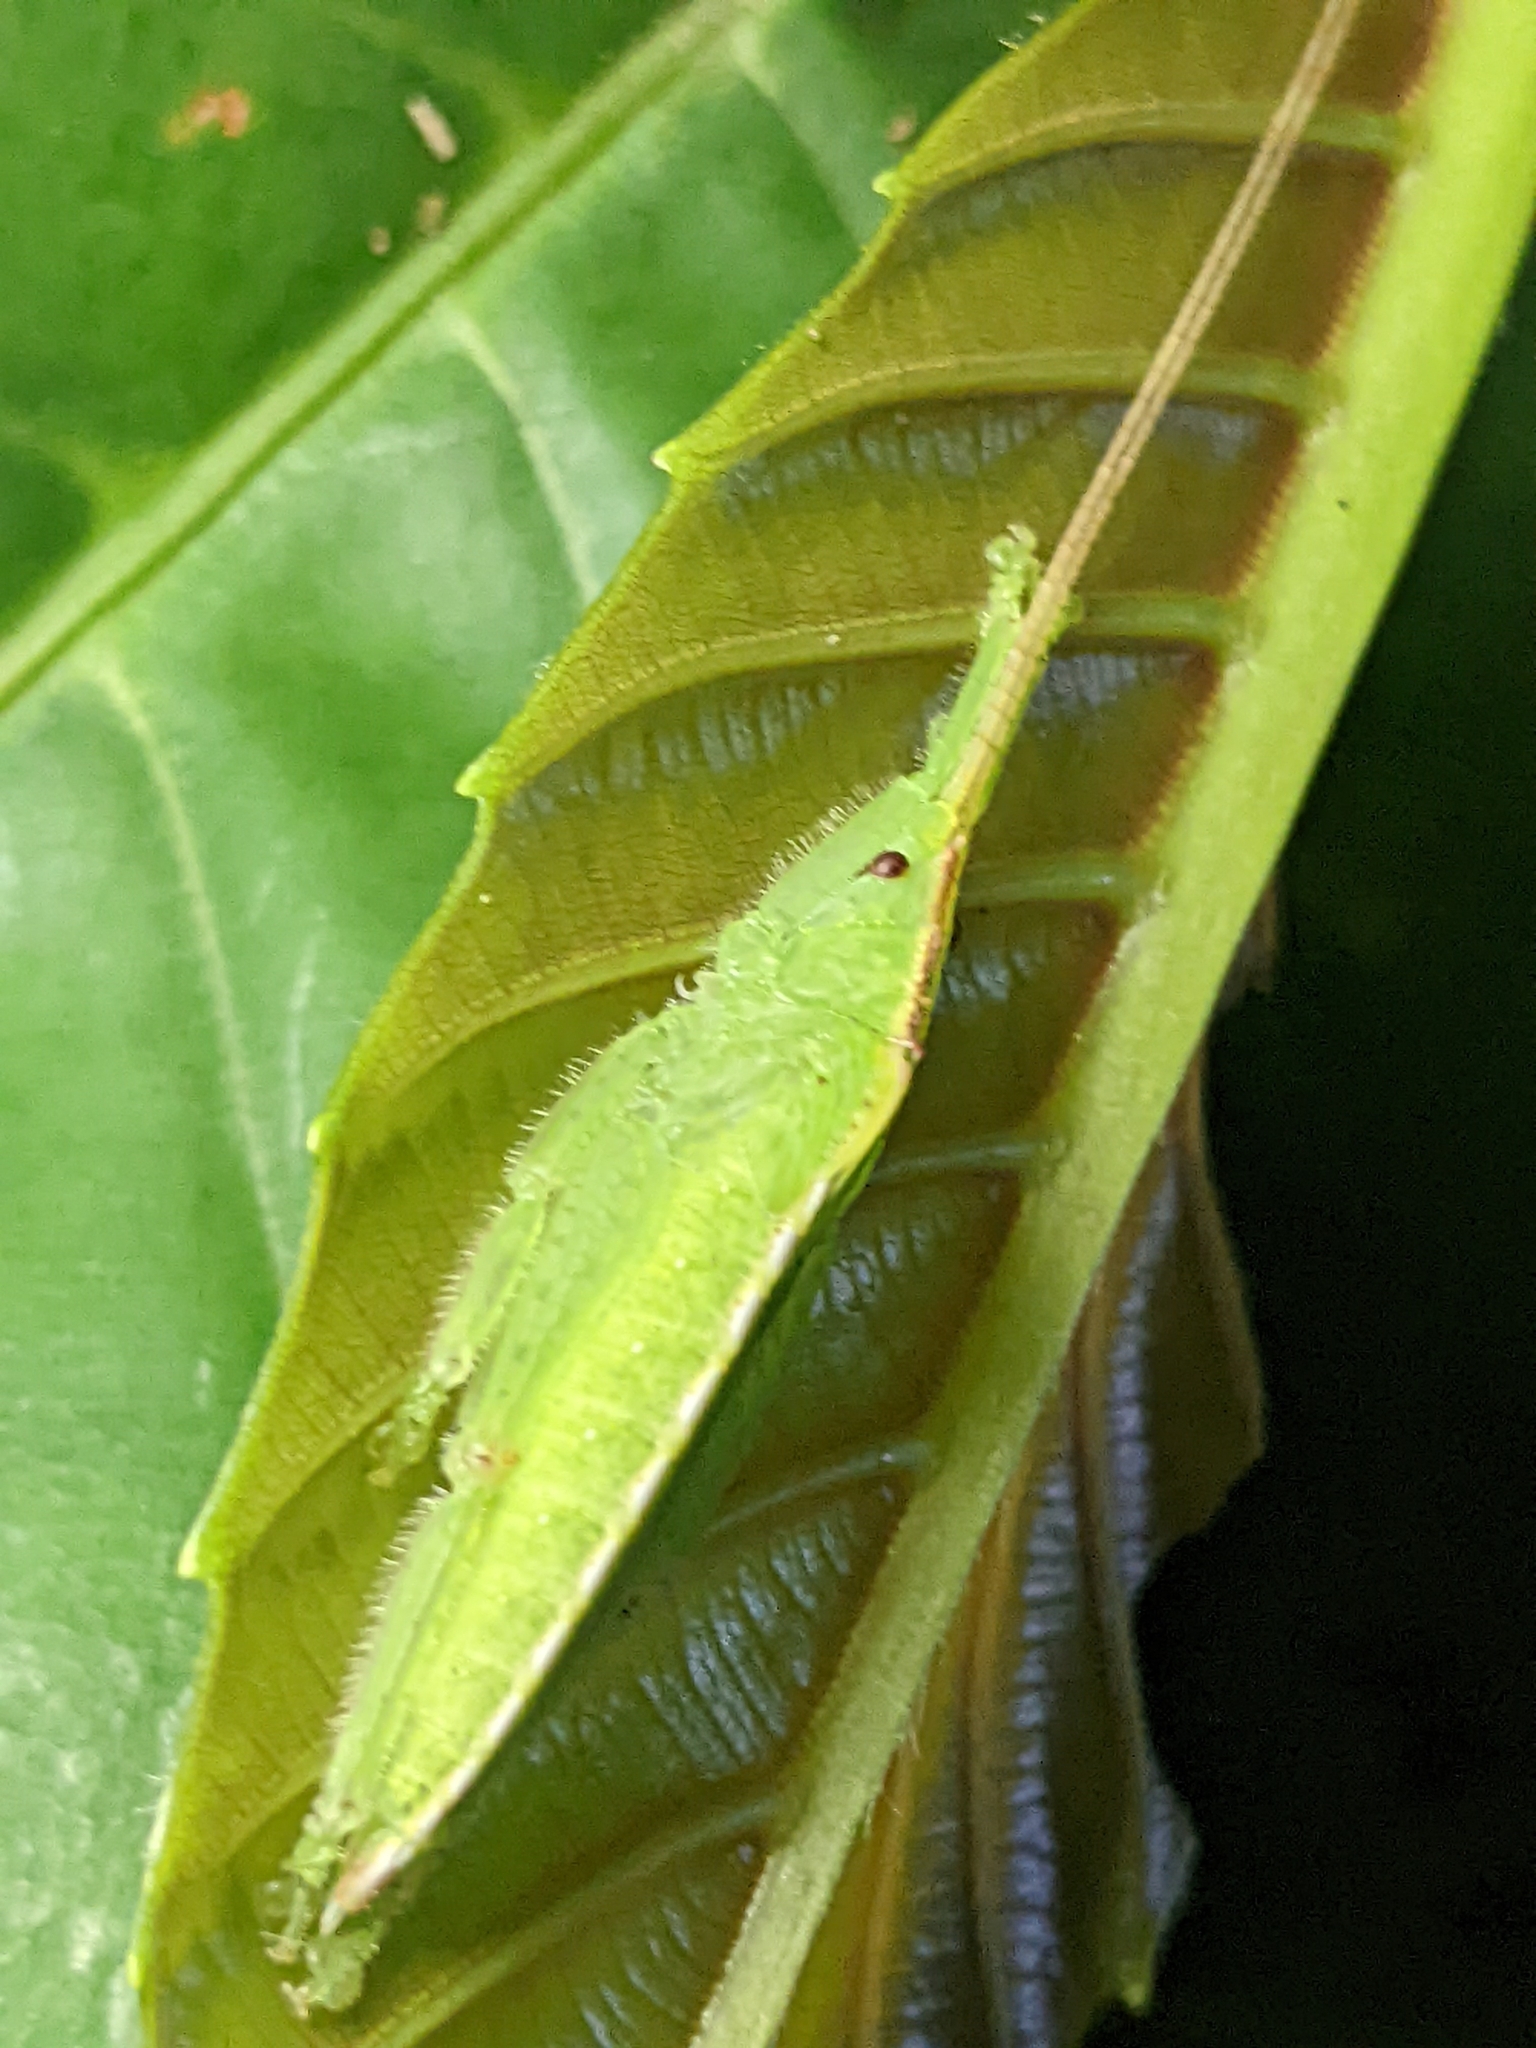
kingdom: Animalia
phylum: Arthropoda
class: Insecta
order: Orthoptera
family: Tettigoniidae
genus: Chondroderella
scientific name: Chondroderella borneensis
